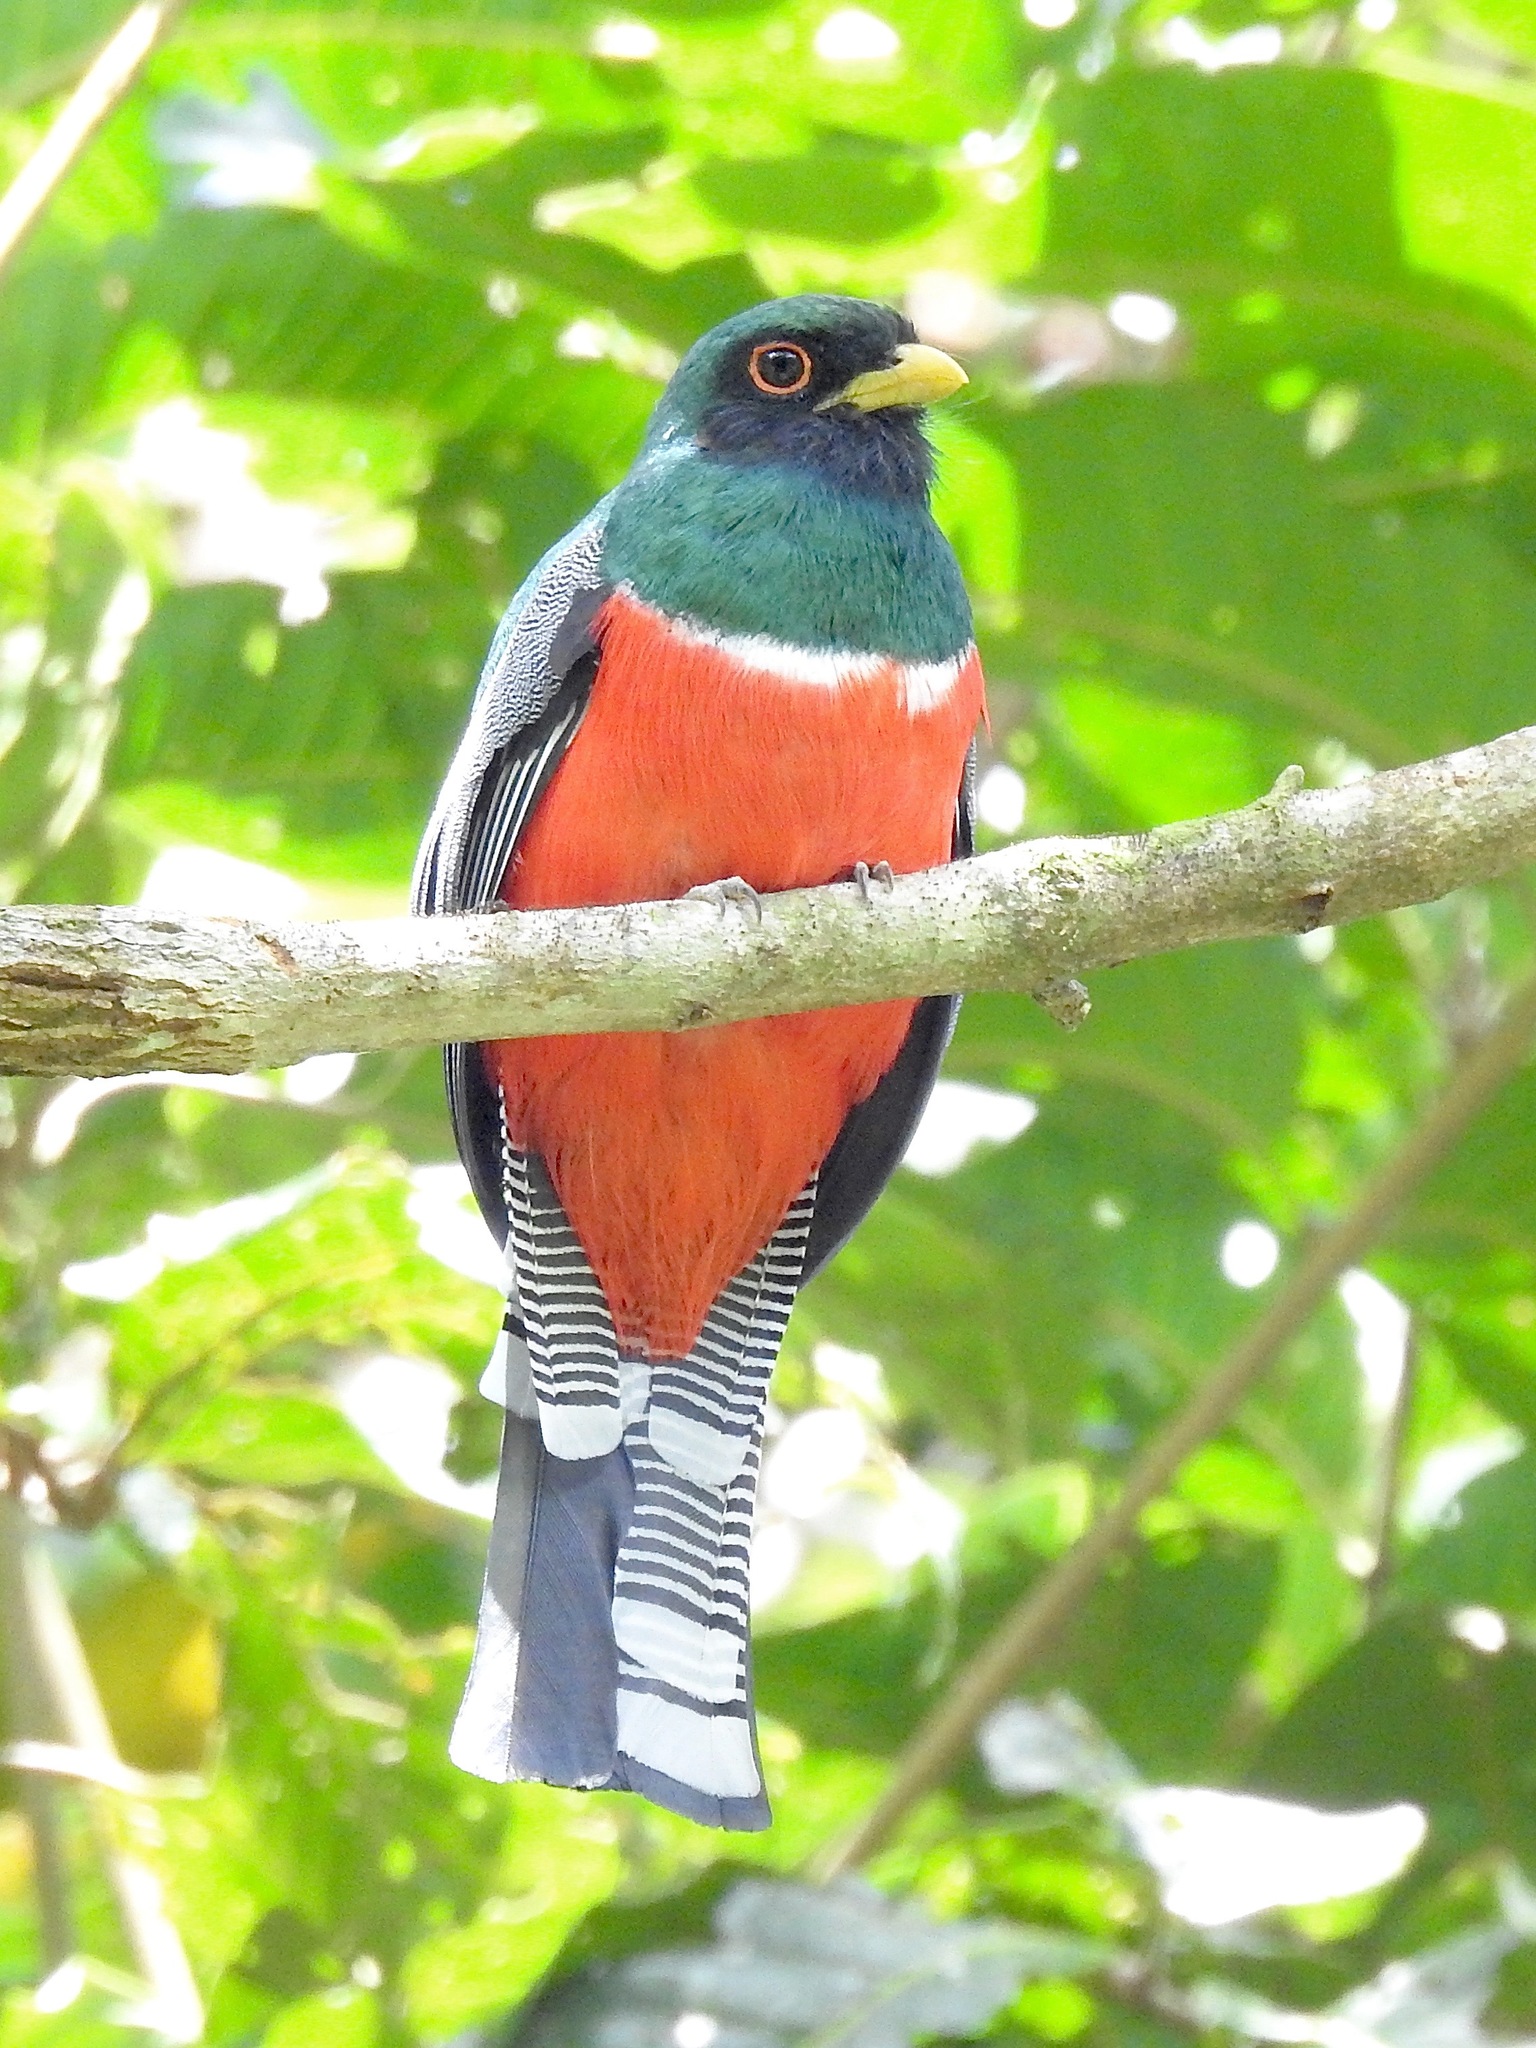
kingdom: Animalia
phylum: Chordata
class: Aves
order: Trogoniformes
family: Trogonidae
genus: Trogon
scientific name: Trogon collaris
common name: Collared trogon
